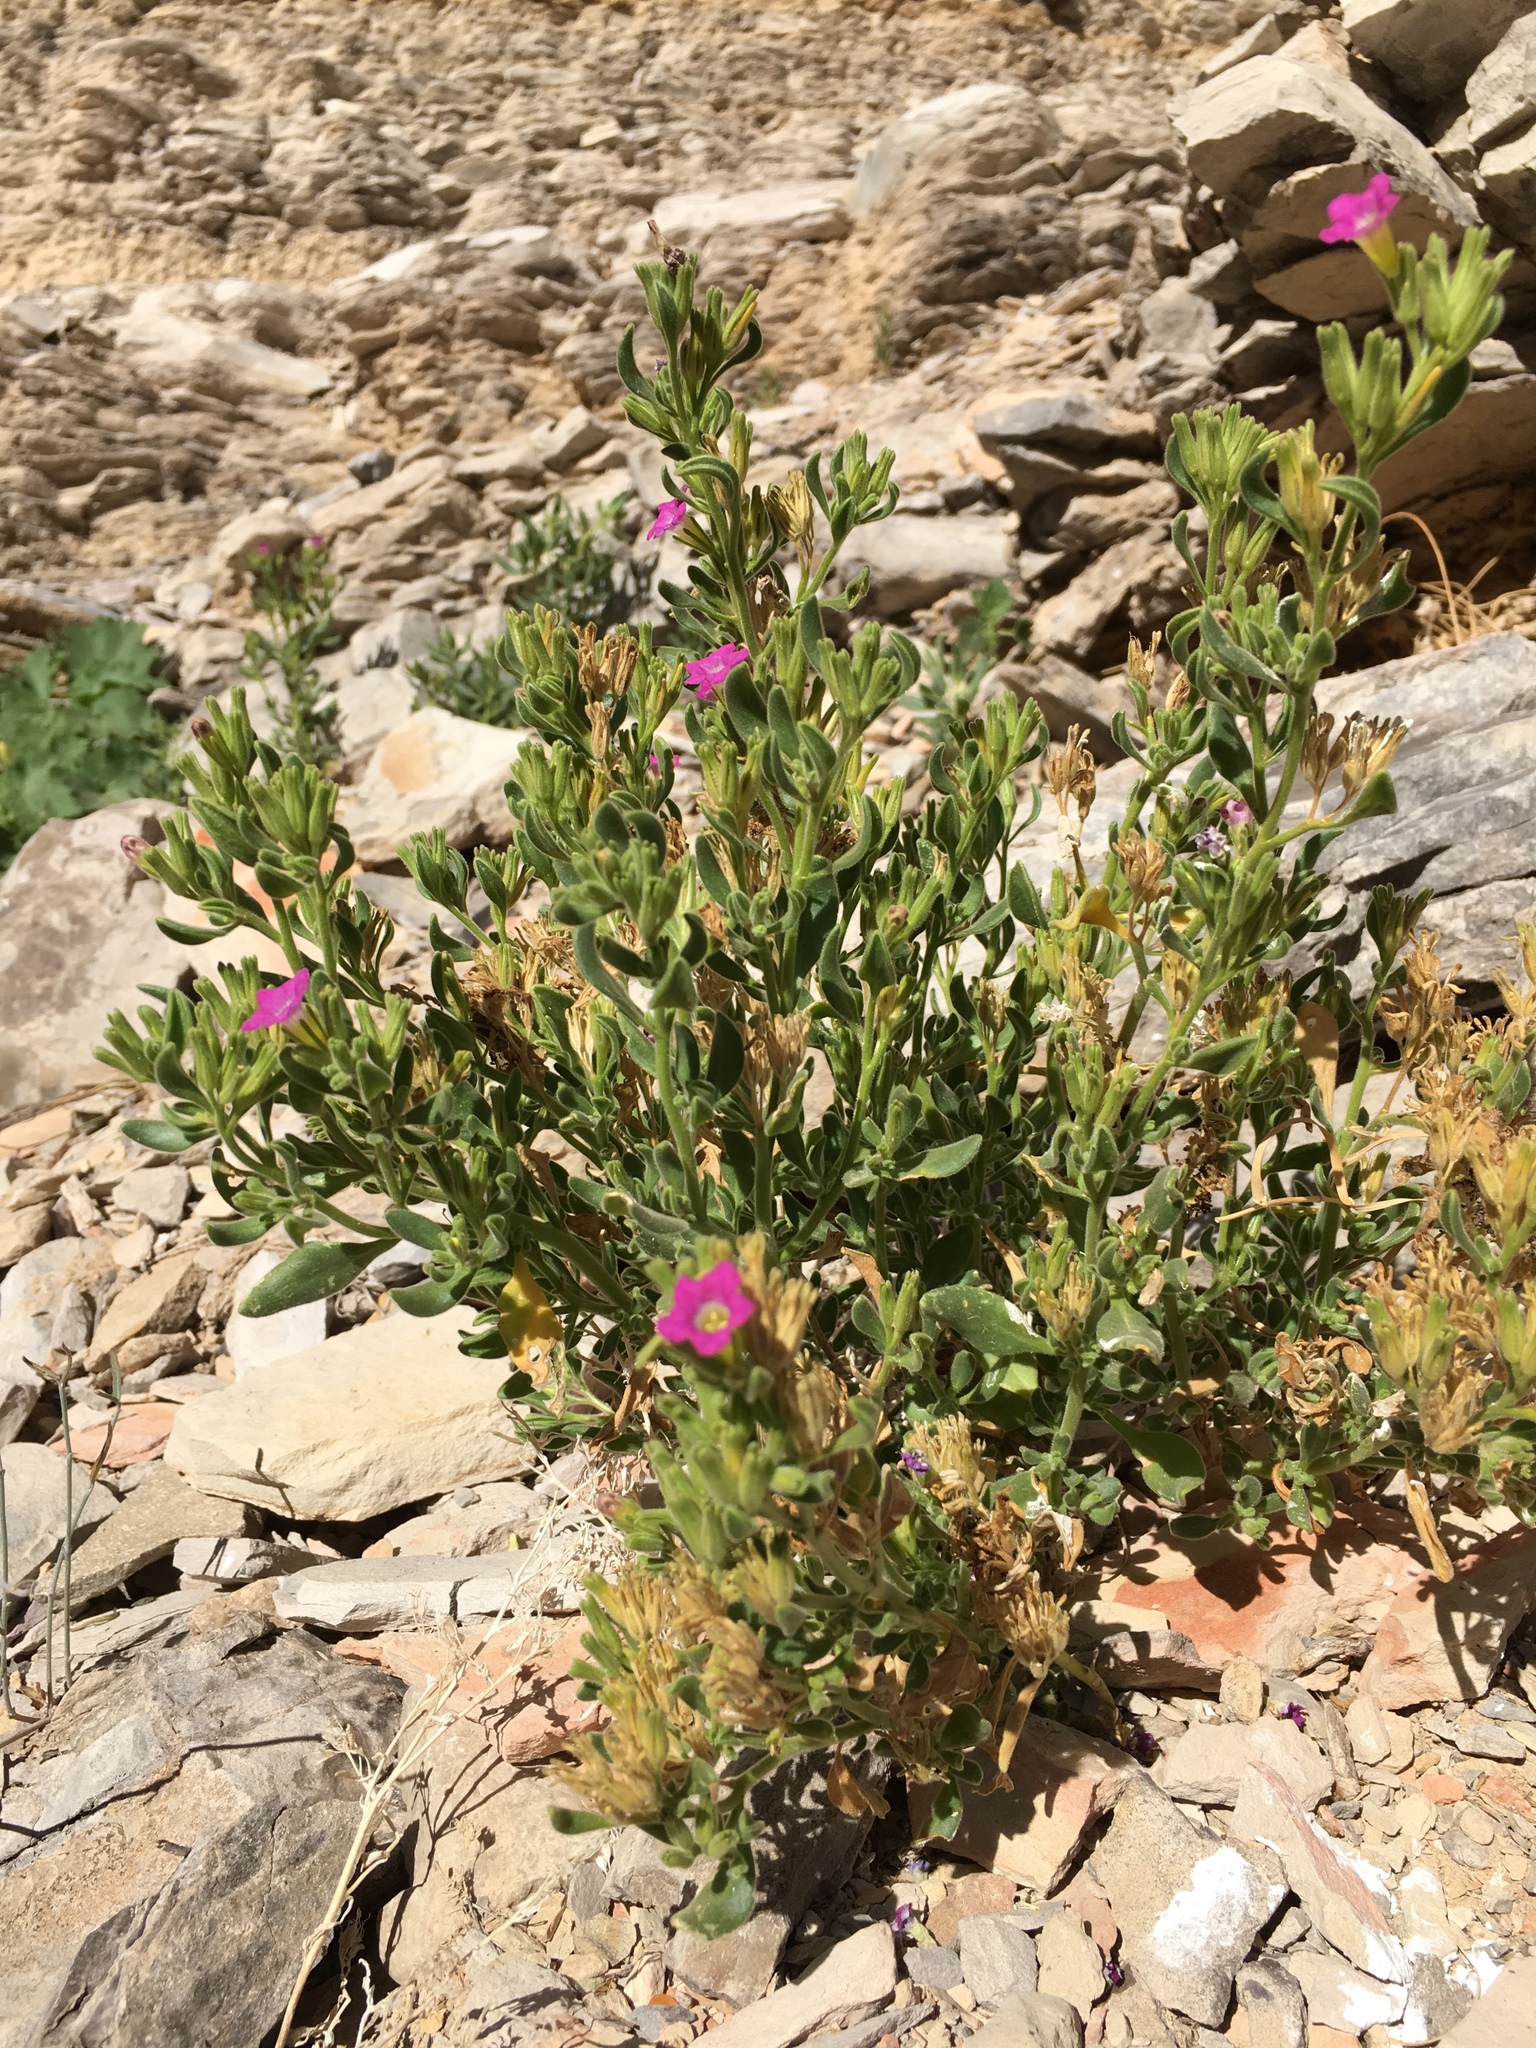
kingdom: Plantae
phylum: Tracheophyta
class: Magnoliopsida
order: Boraginales
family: Namaceae
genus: Nama
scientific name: Nama havardii
